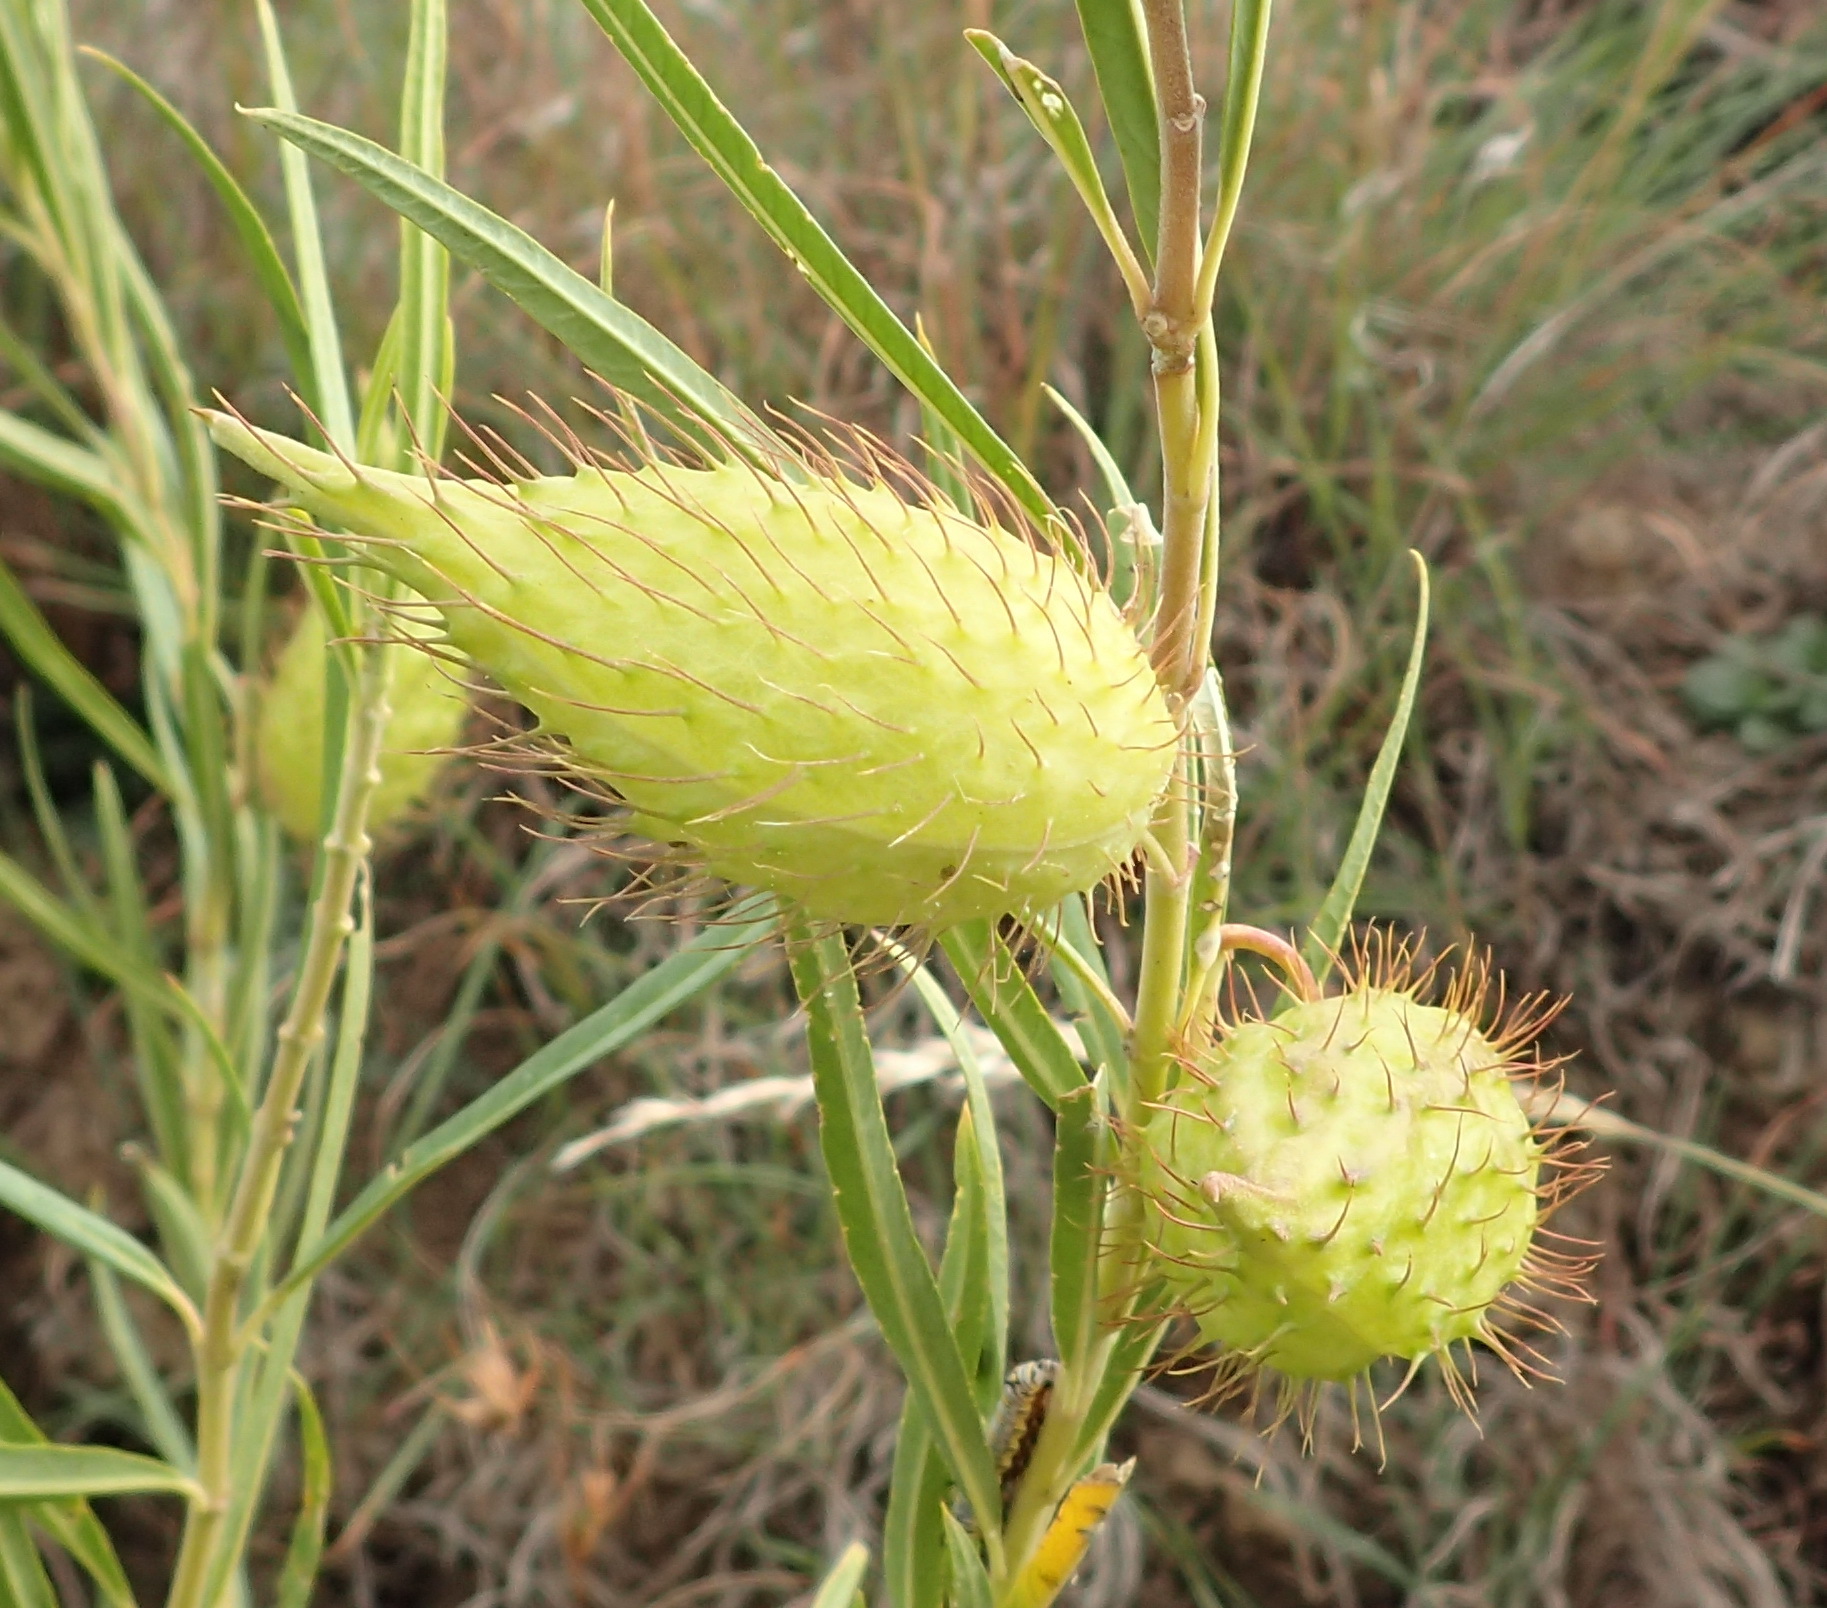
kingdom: Plantae
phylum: Tracheophyta
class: Magnoliopsida
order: Gentianales
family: Apocynaceae
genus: Gomphocarpus
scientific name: Gomphocarpus fruticosus
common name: Milkweed
